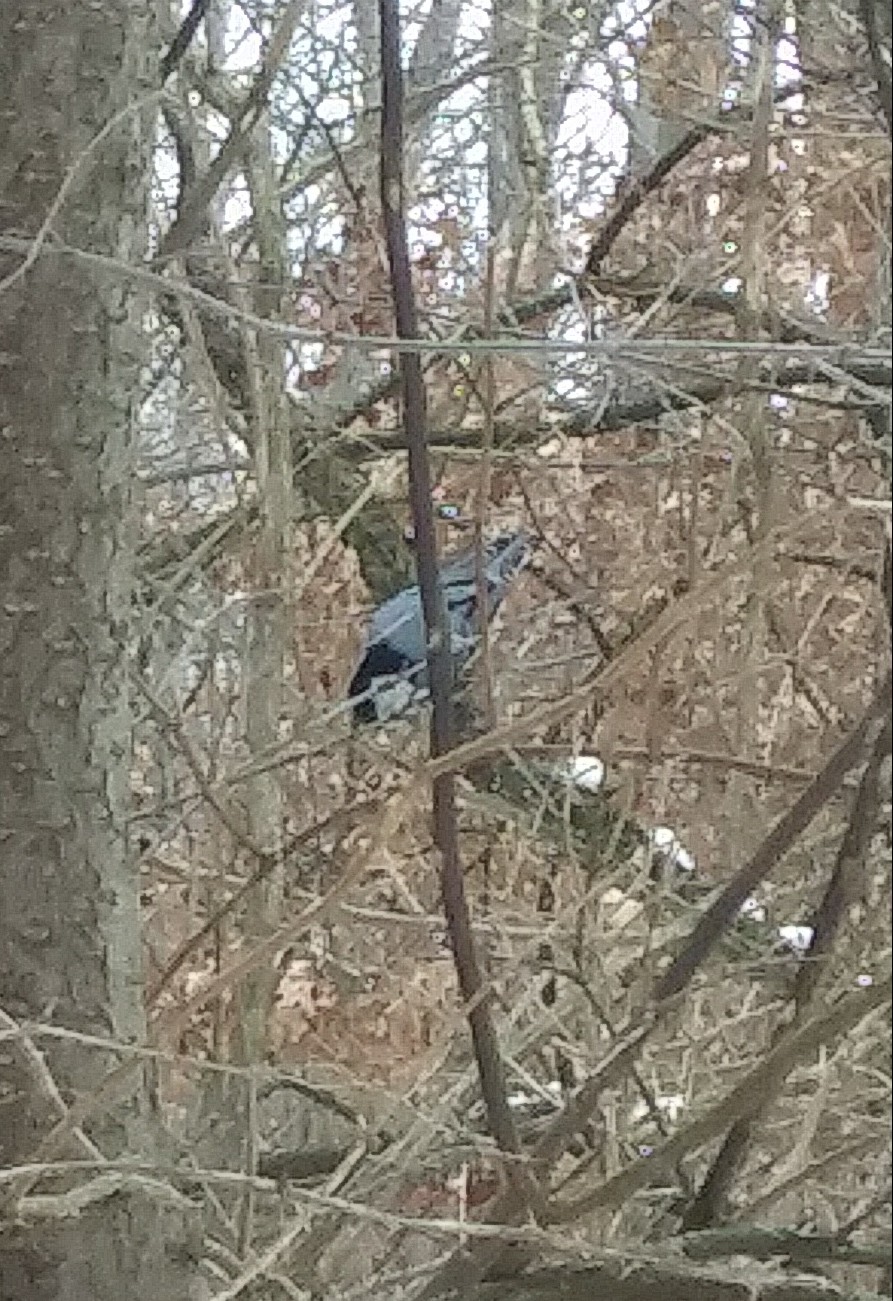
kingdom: Animalia
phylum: Chordata
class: Aves
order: Passeriformes
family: Sittidae
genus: Sitta
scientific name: Sitta carolinensis
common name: White-breasted nuthatch
